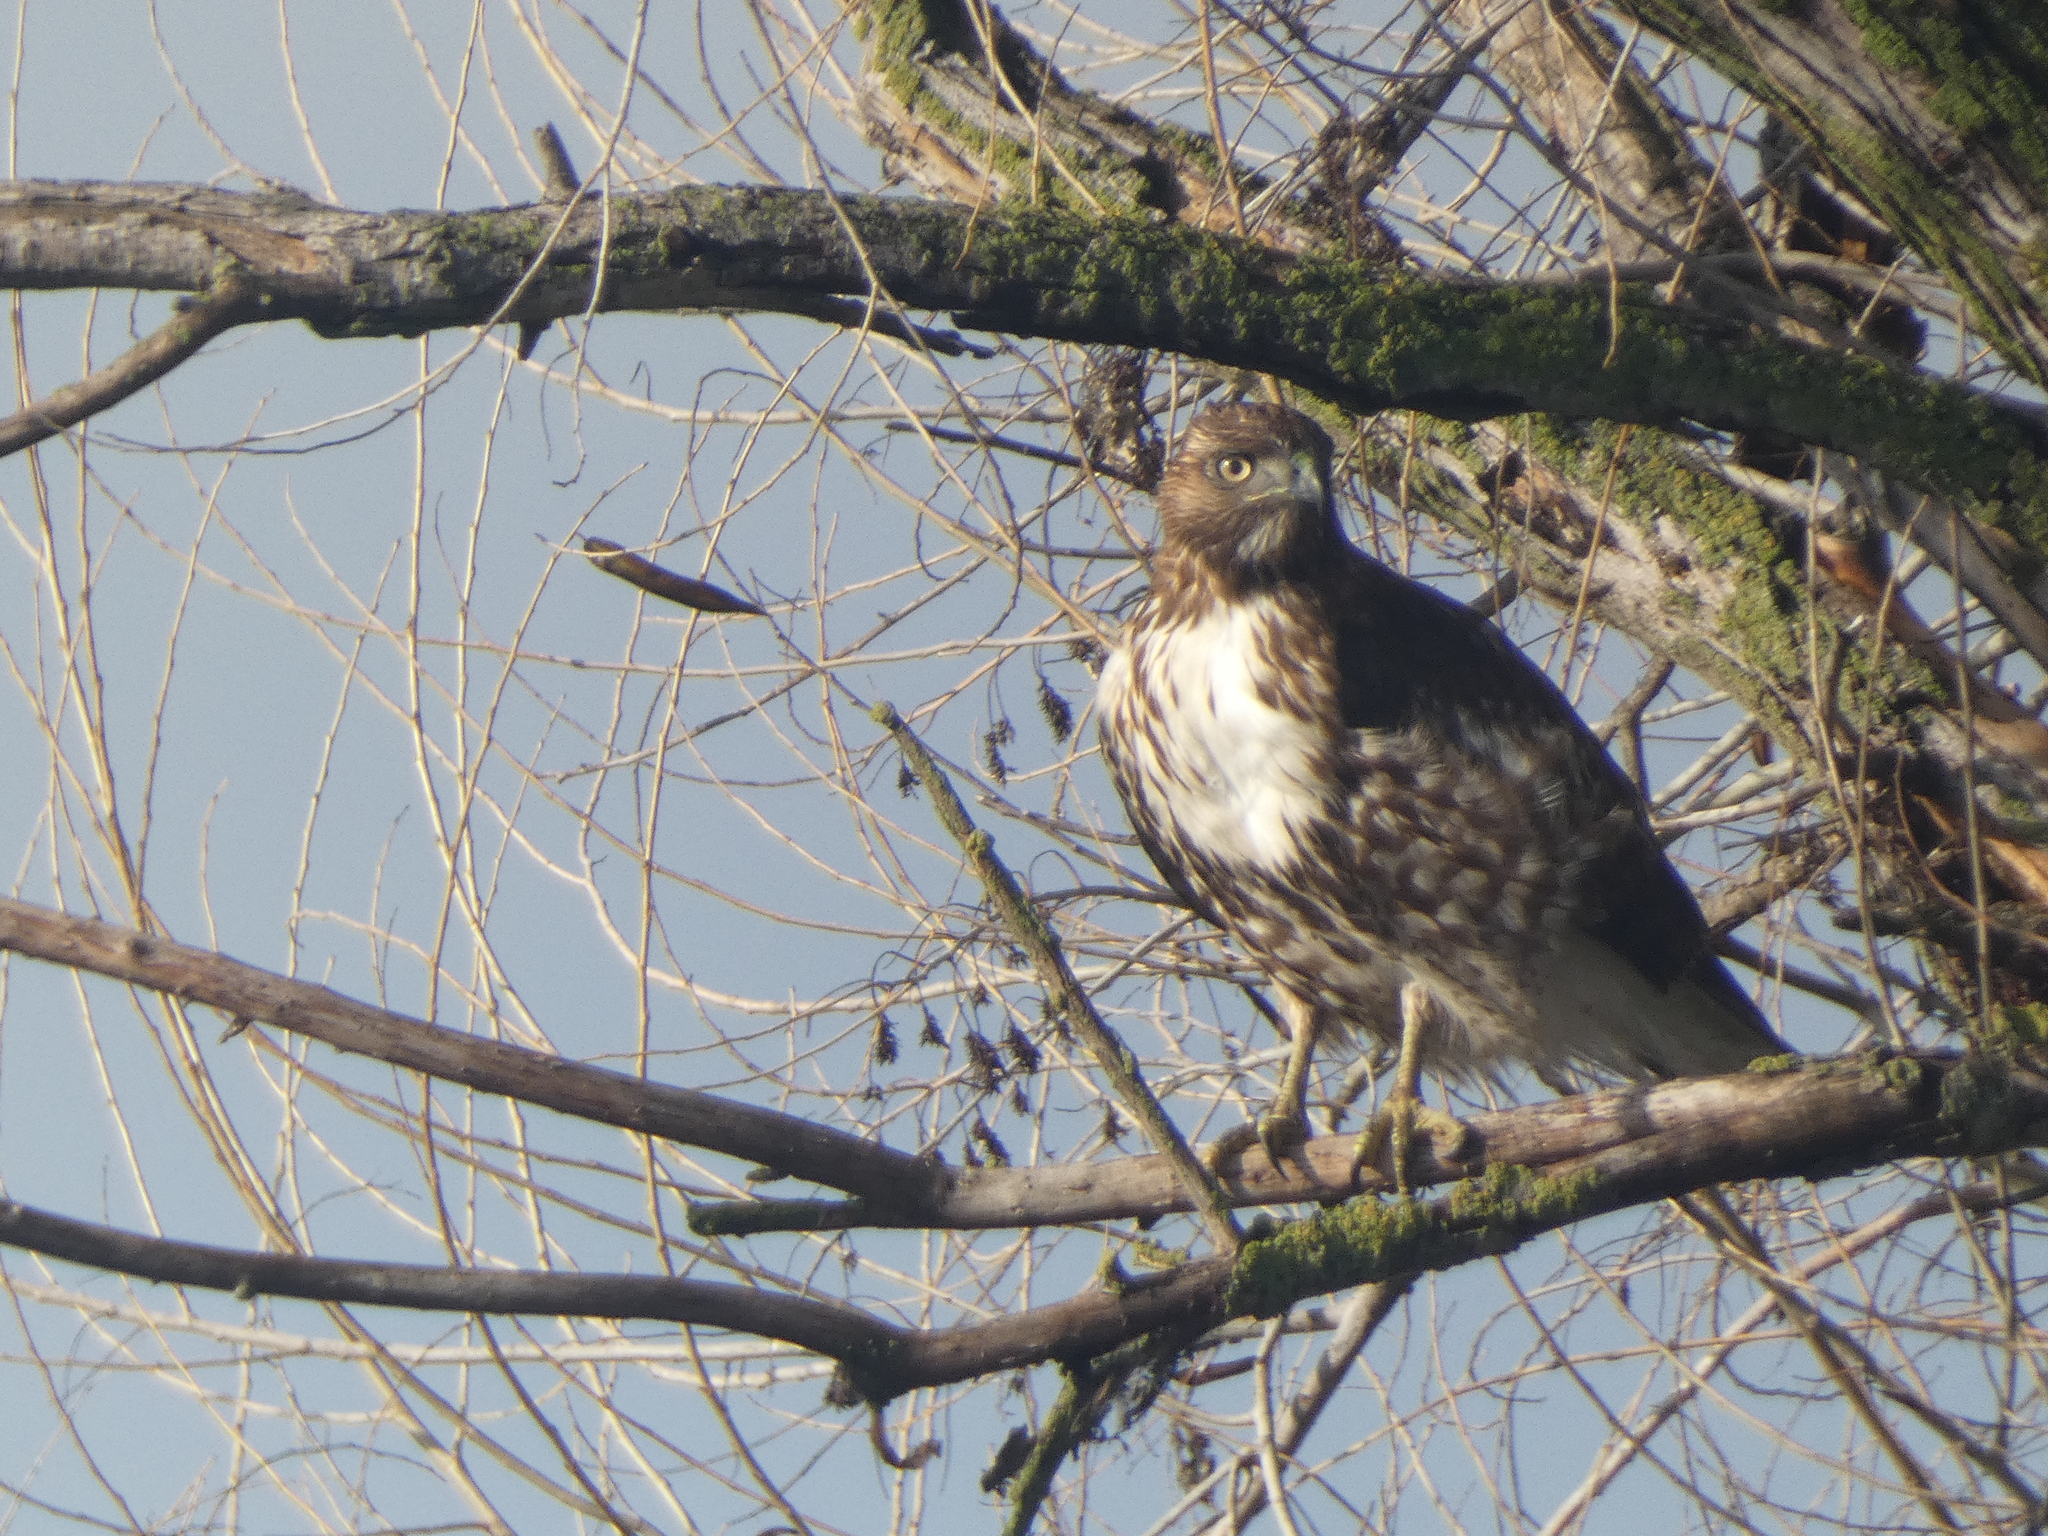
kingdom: Animalia
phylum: Chordata
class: Aves
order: Accipitriformes
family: Accipitridae
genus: Buteo
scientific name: Buteo jamaicensis
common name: Red-tailed hawk
